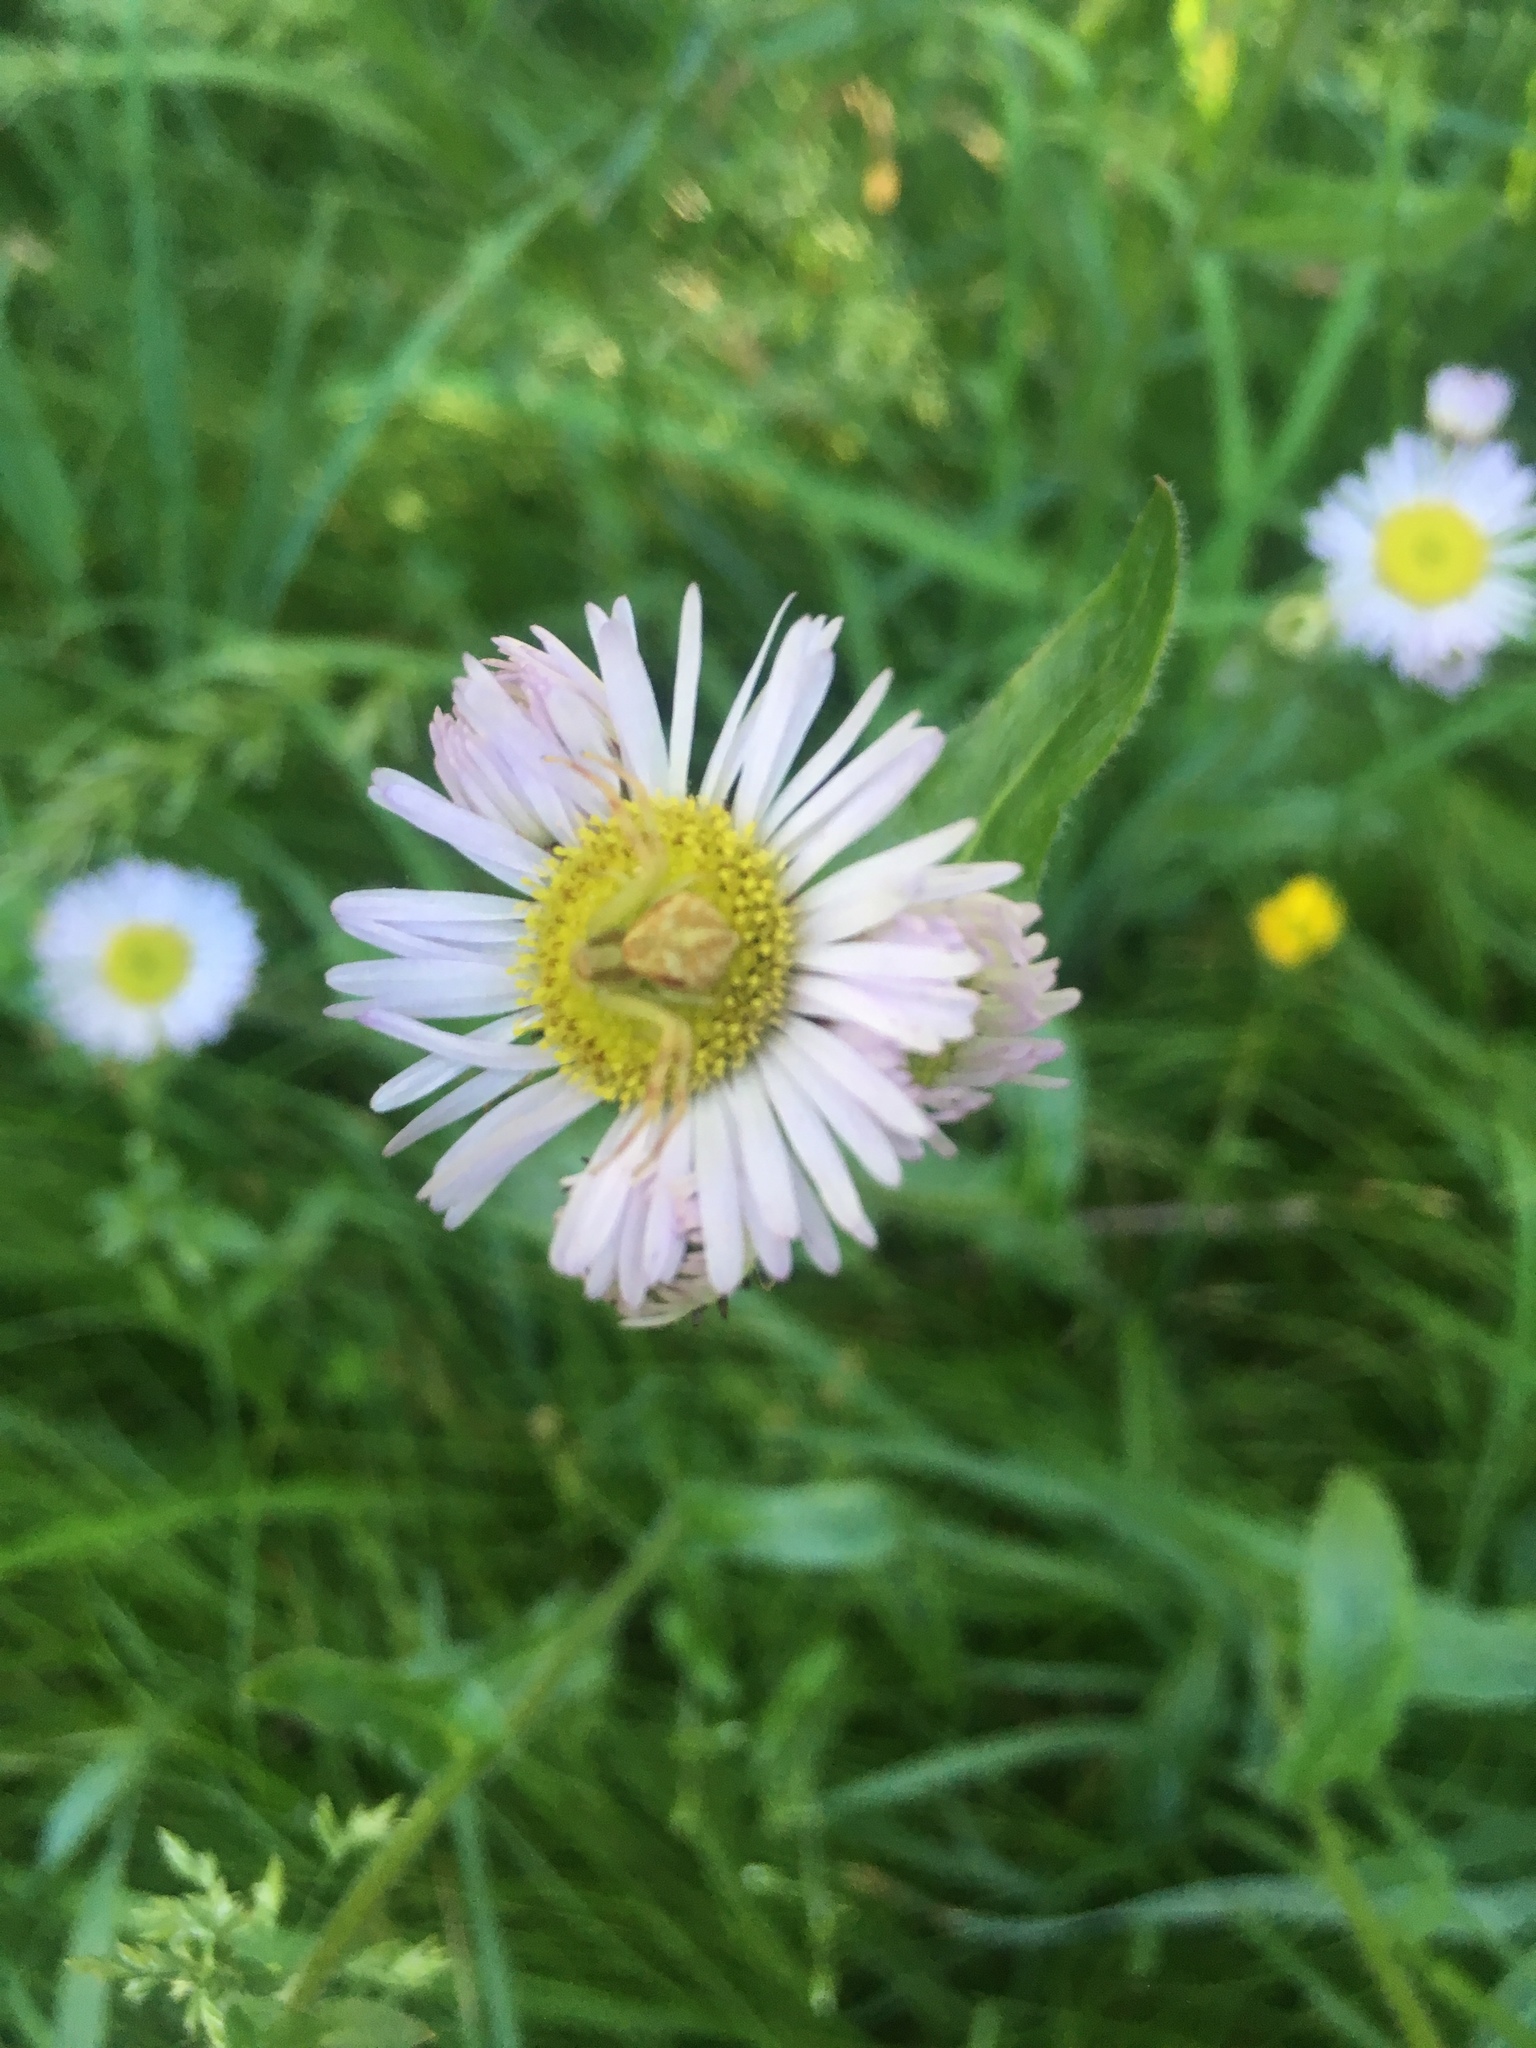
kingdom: Animalia
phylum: Arthropoda
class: Arachnida
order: Araneae
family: Thomisidae
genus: Mecaphesa
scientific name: Mecaphesa asperata
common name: Crab spiders
